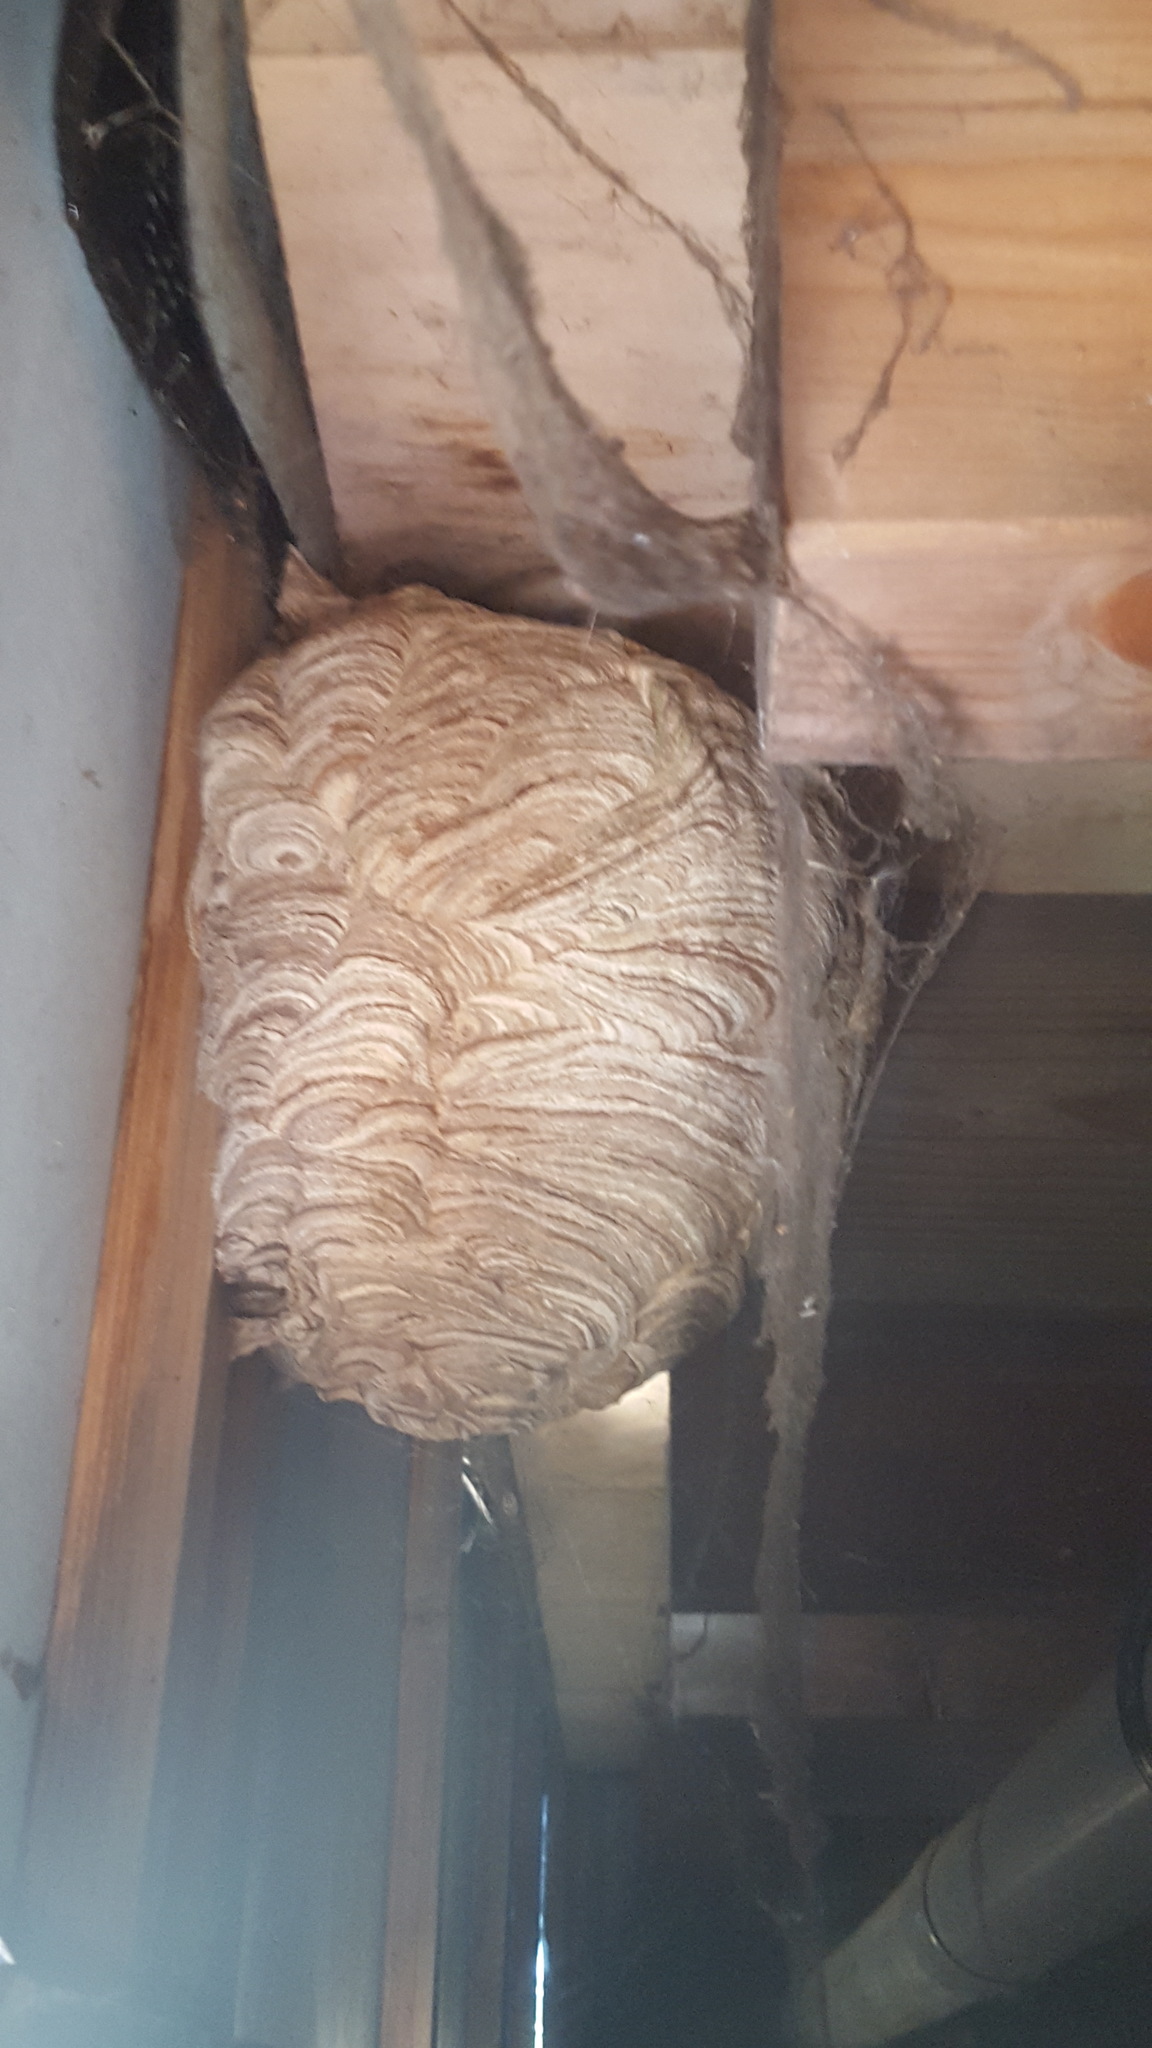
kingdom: Animalia
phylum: Arthropoda
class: Insecta
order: Hymenoptera
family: Vespidae
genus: Vespa
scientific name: Vespa velutina
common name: Asian hornet
